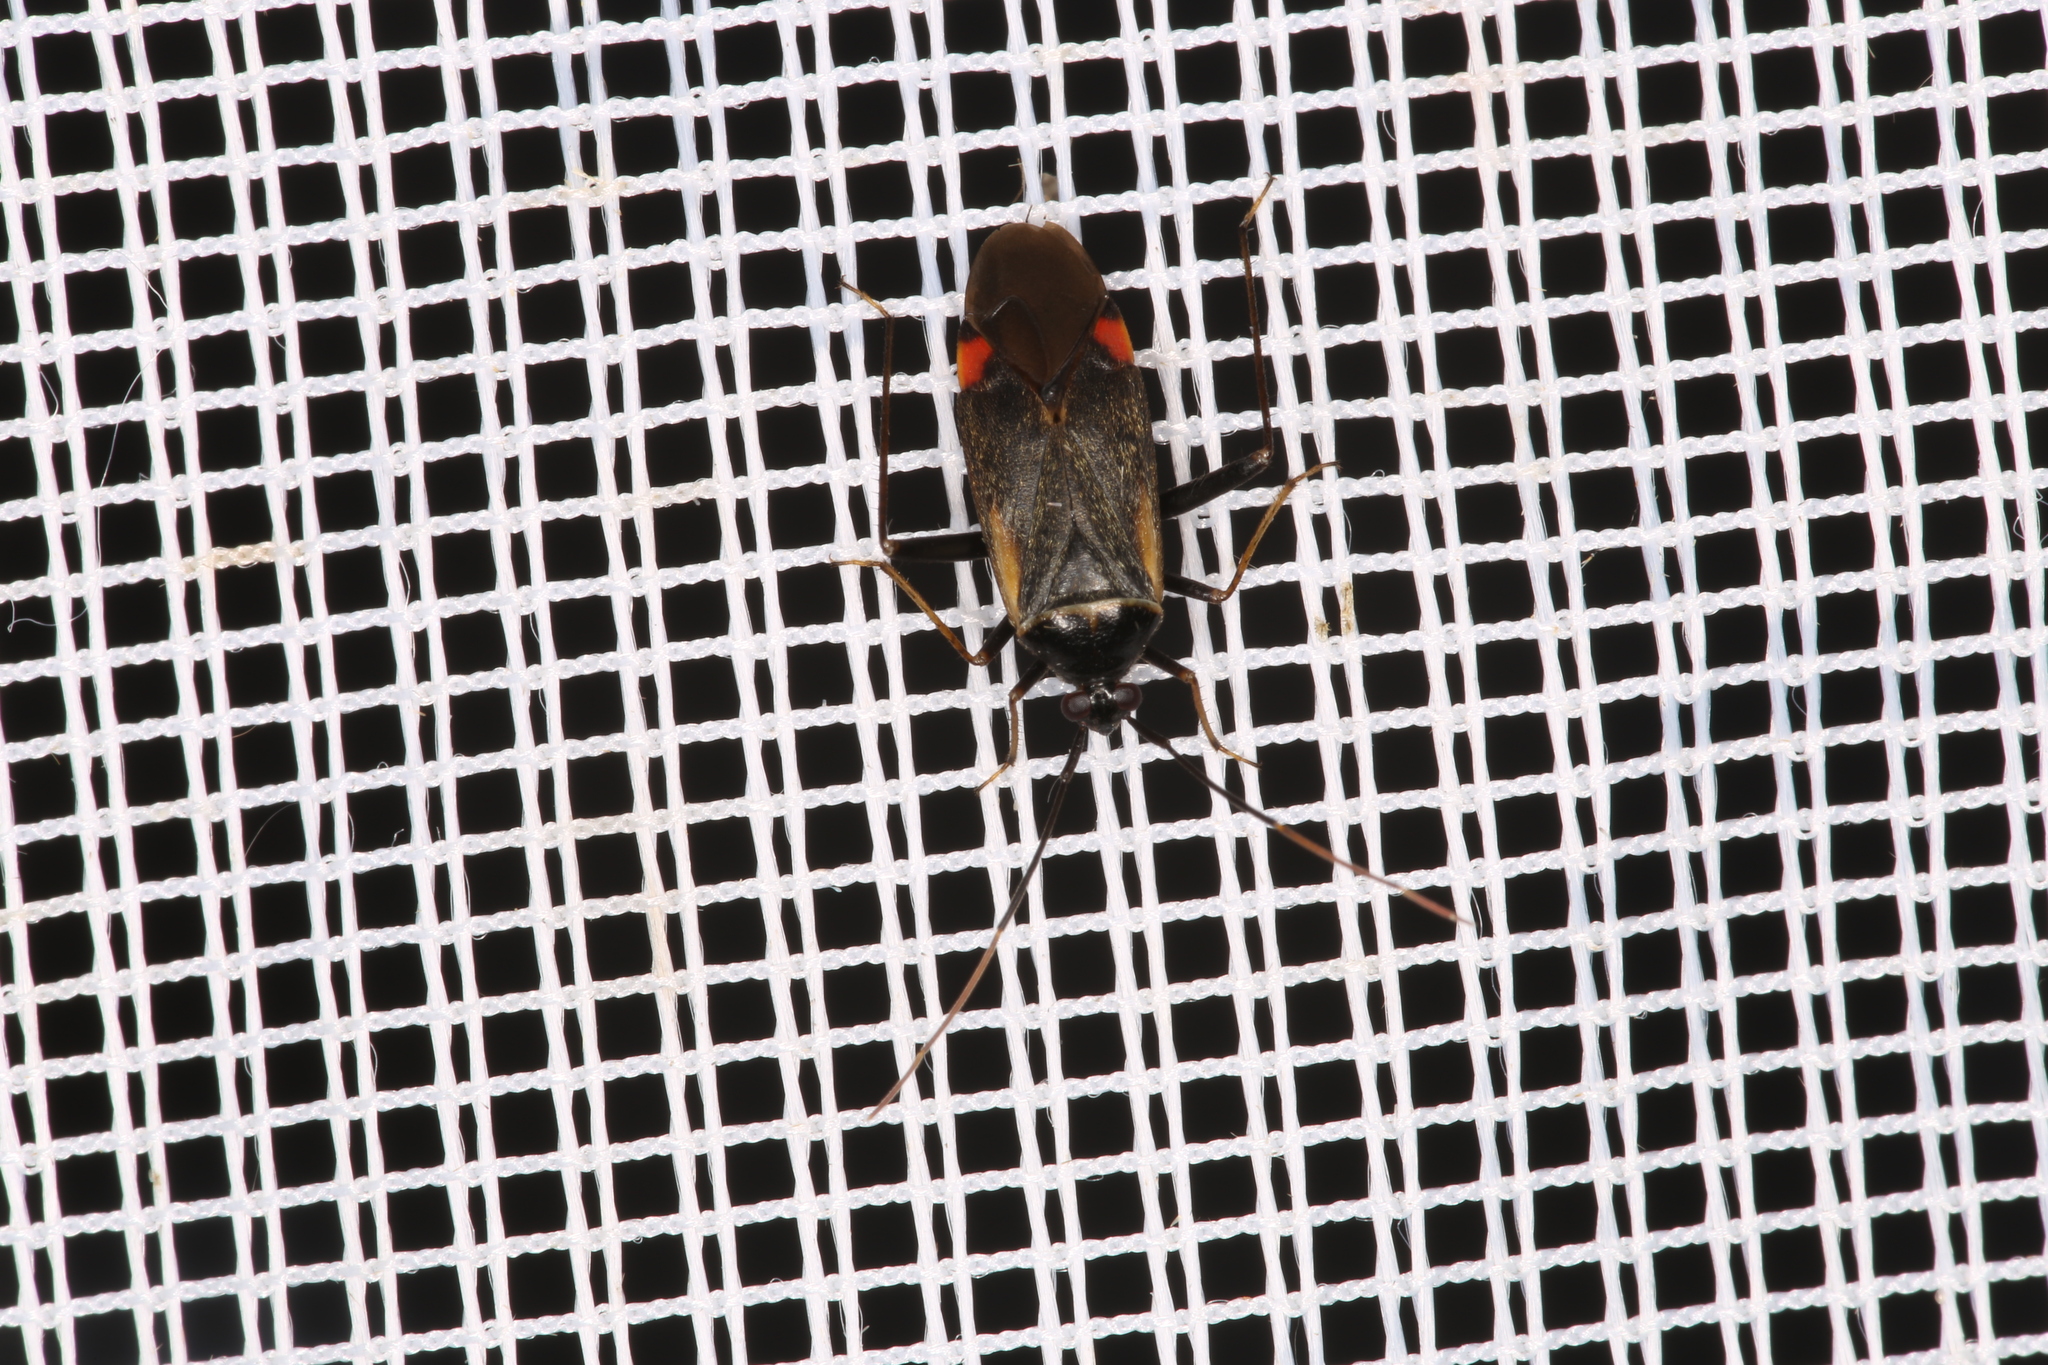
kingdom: Animalia
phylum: Arthropoda
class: Insecta
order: Hemiptera
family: Miridae
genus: Adelphocoris
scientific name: Adelphocoris seticornis
